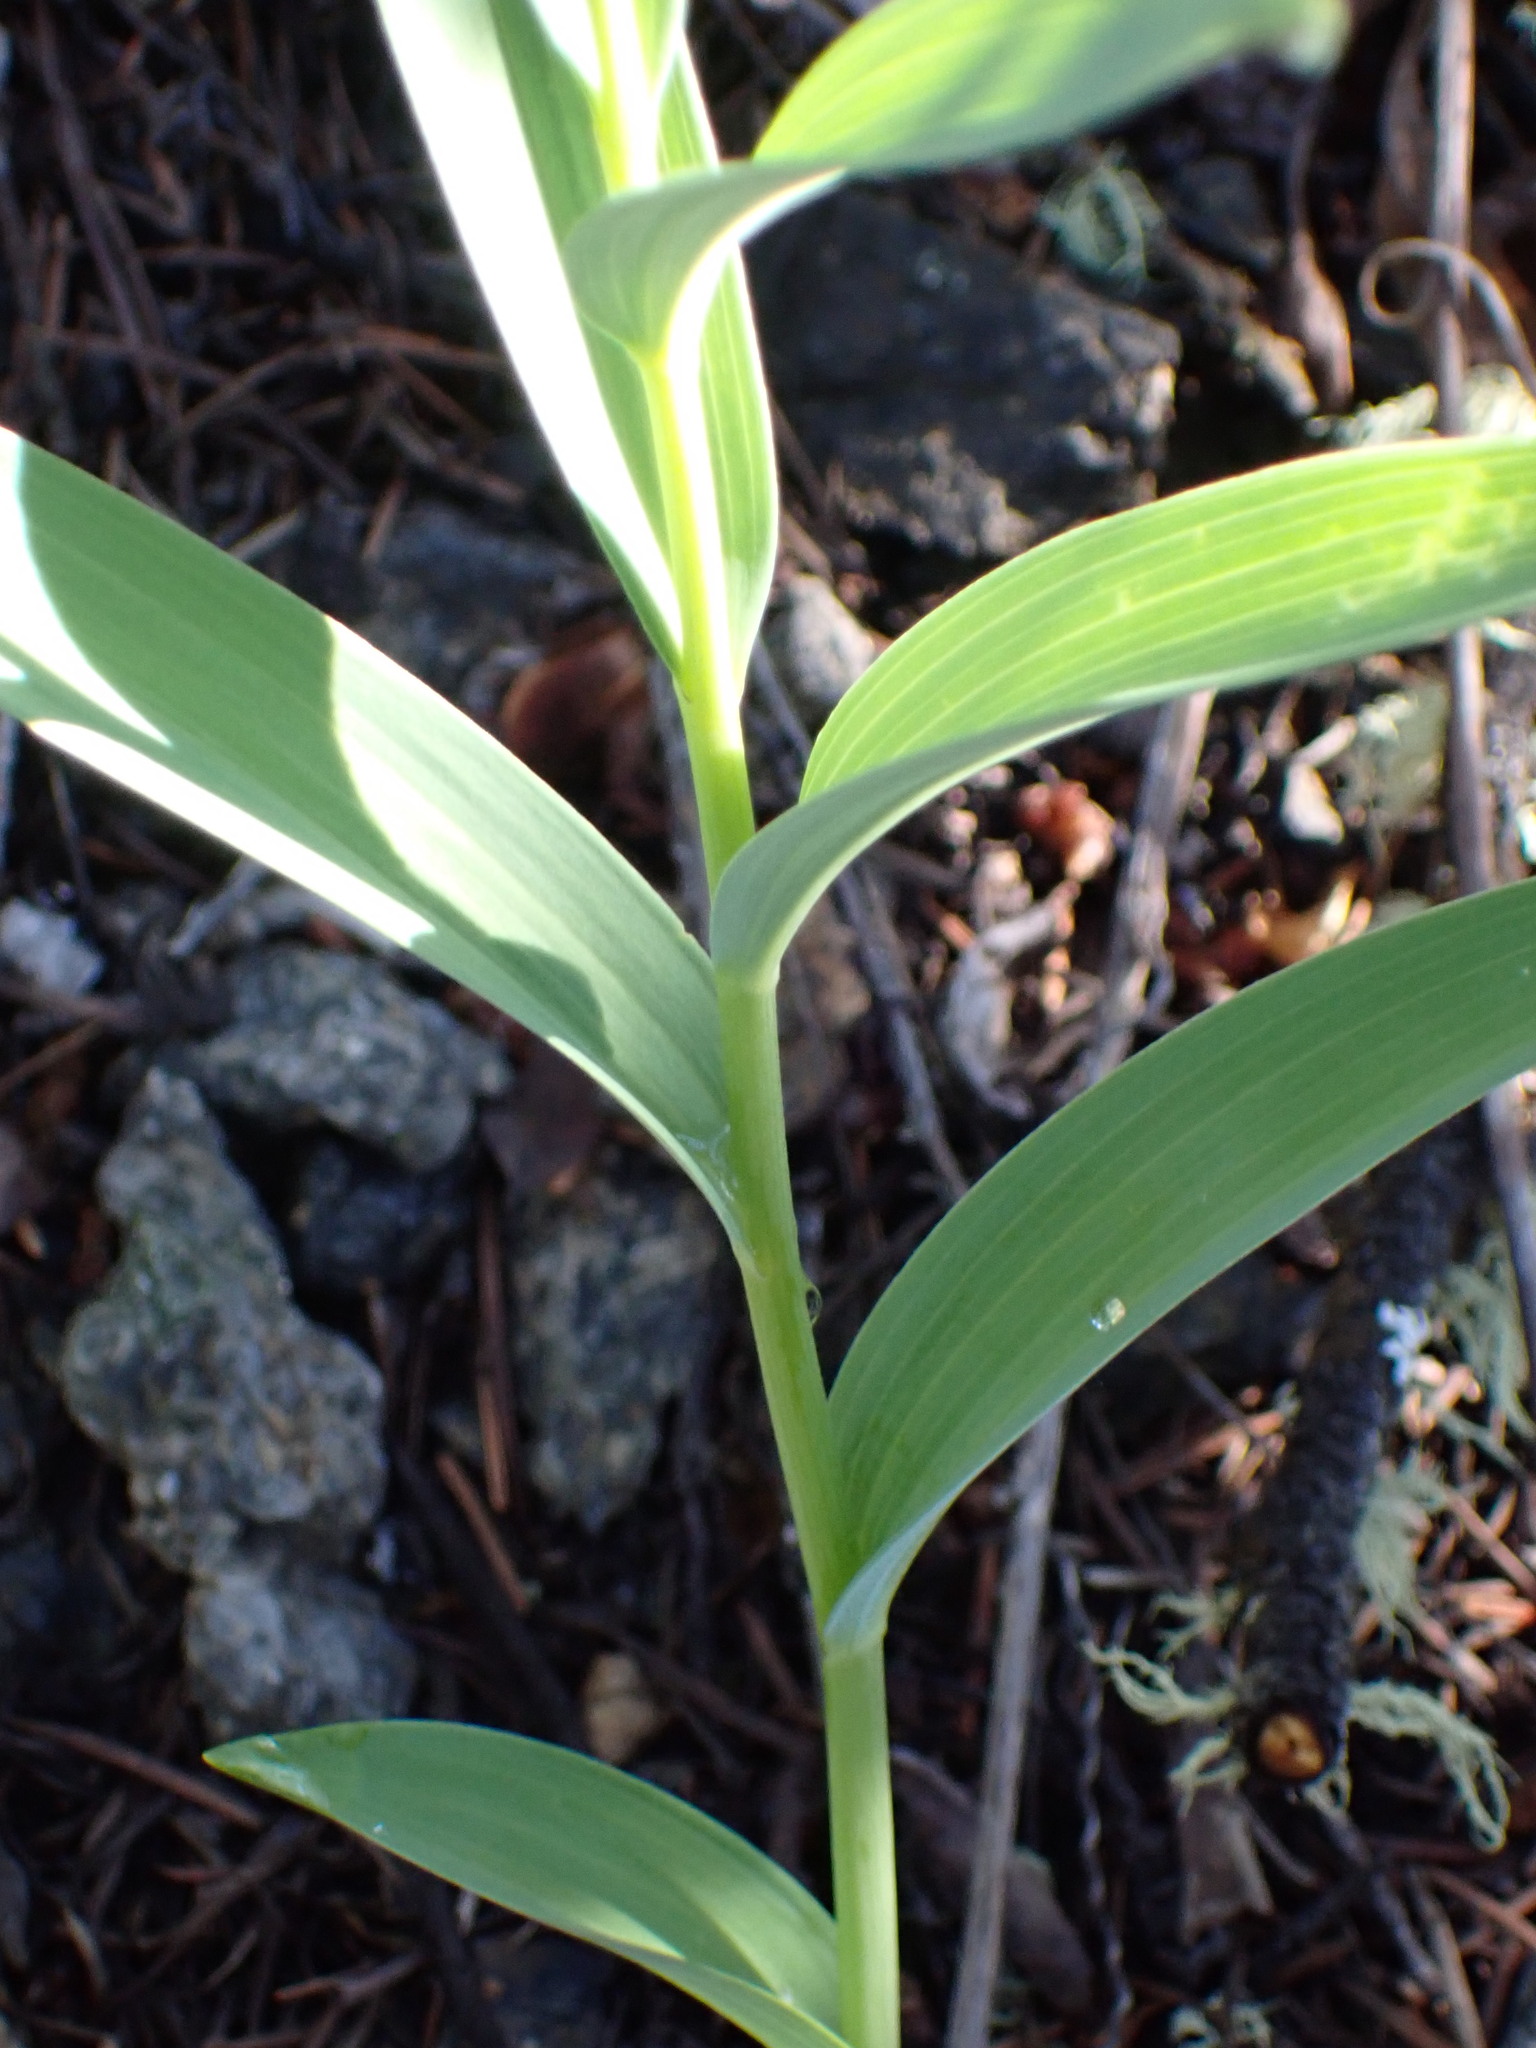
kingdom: Plantae
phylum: Tracheophyta
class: Liliopsida
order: Asparagales
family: Asparagaceae
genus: Maianthemum
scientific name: Maianthemum stellatum
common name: Little false solomon's seal
